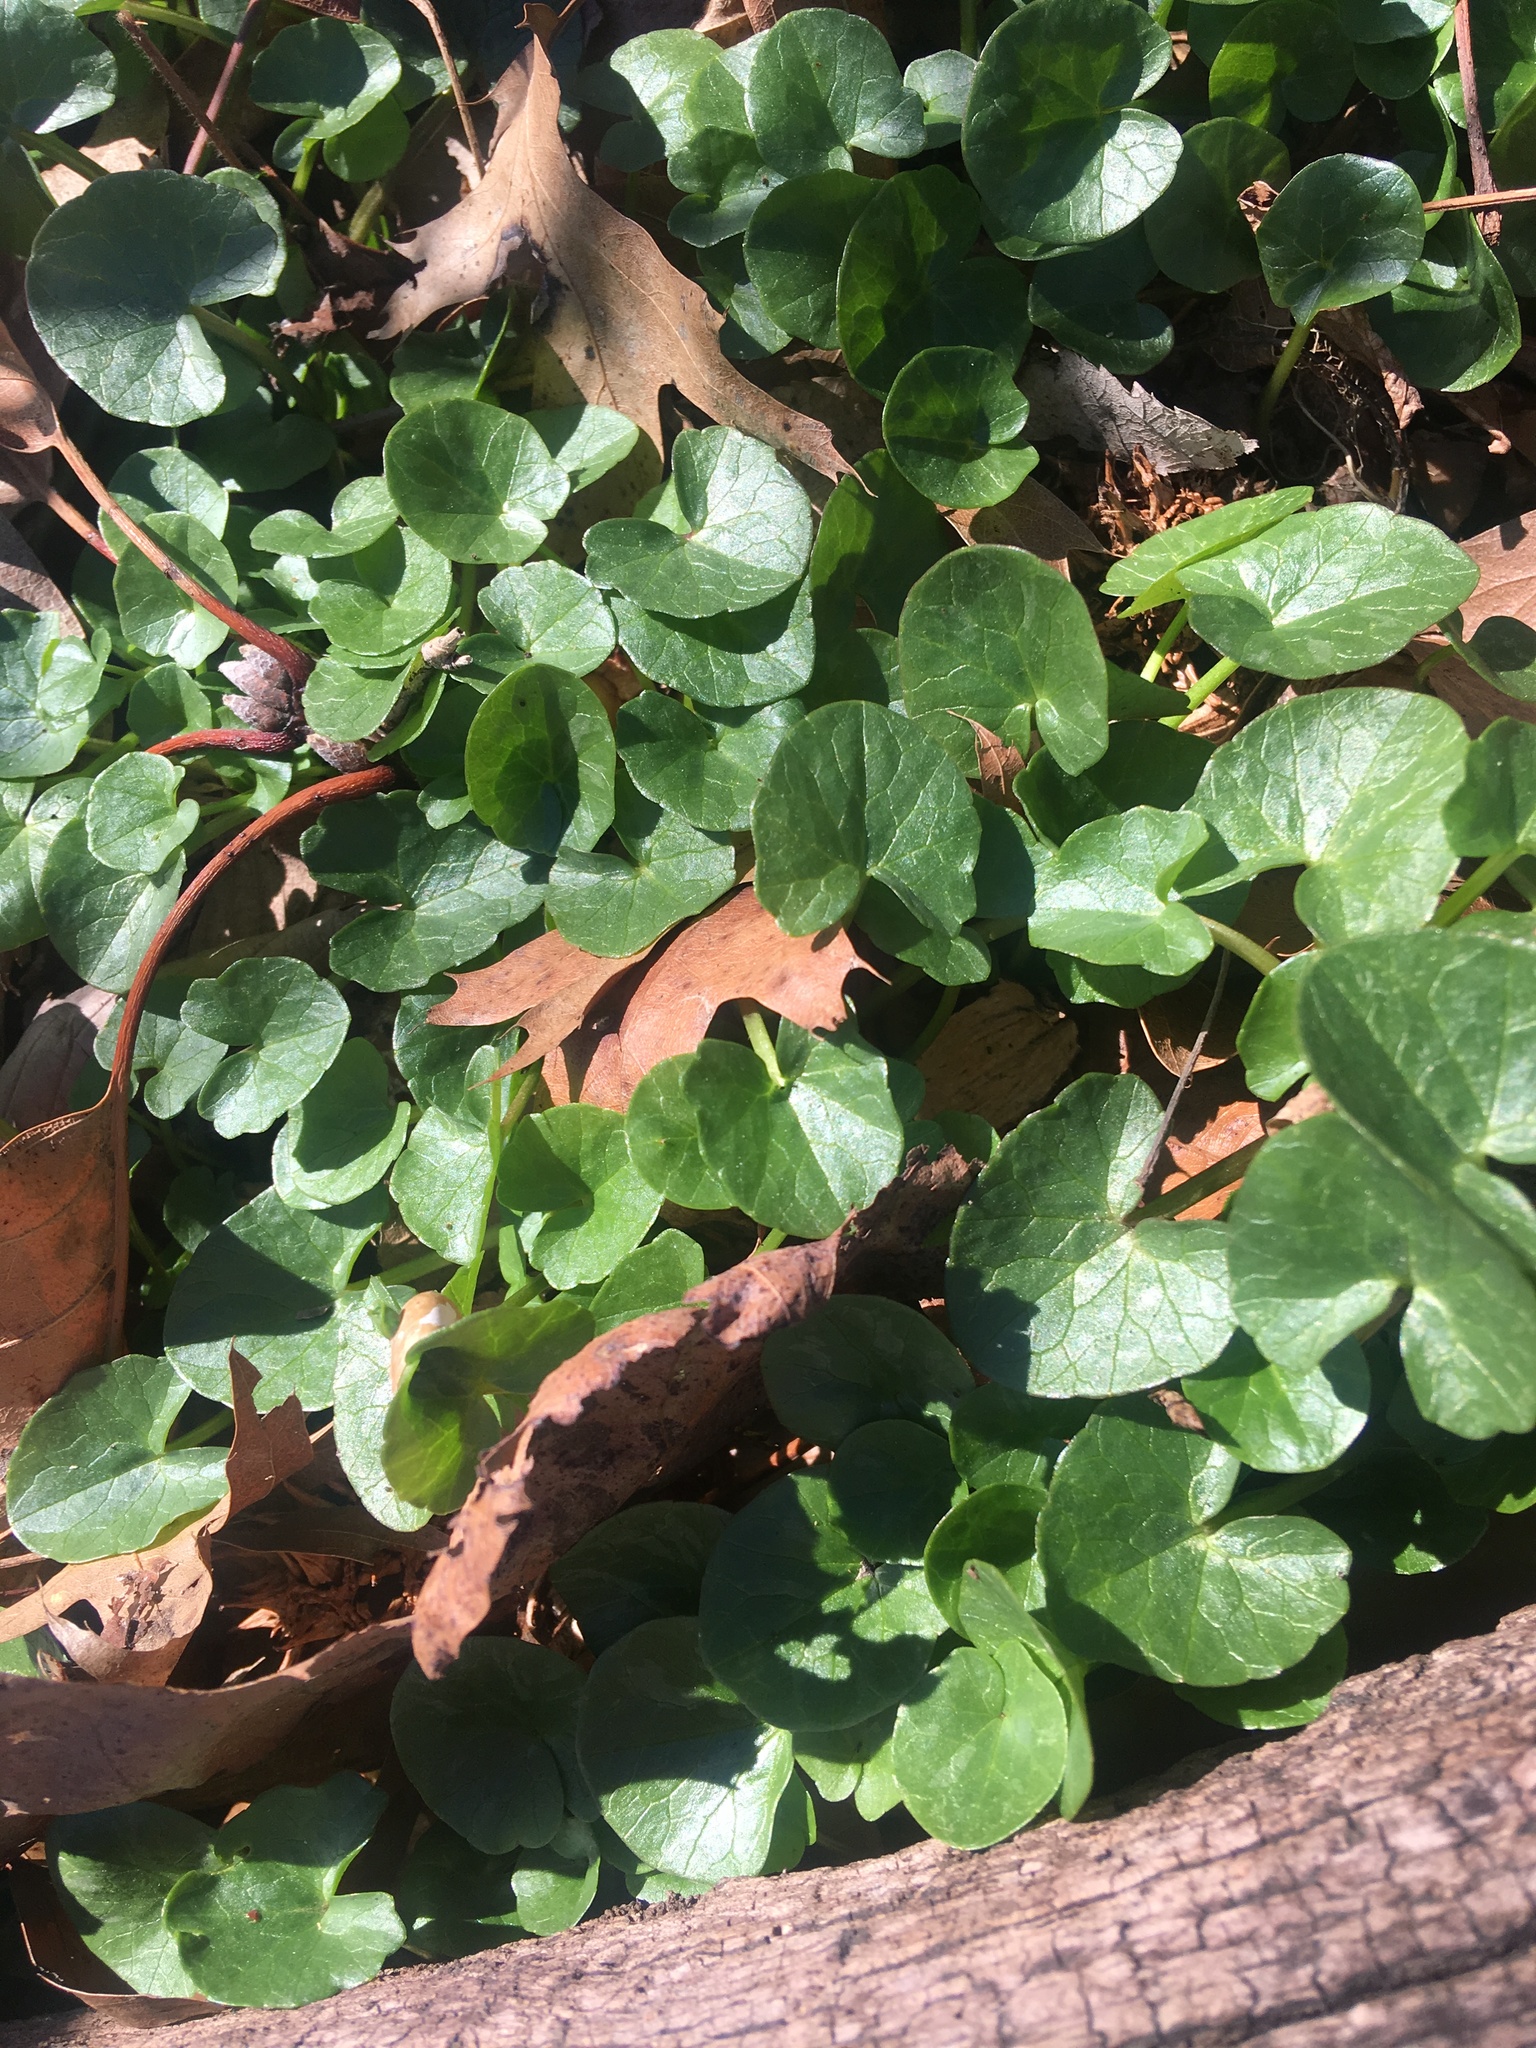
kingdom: Plantae
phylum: Tracheophyta
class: Magnoliopsida
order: Ranunculales
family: Ranunculaceae
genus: Ficaria
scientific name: Ficaria verna
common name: Lesser celandine
